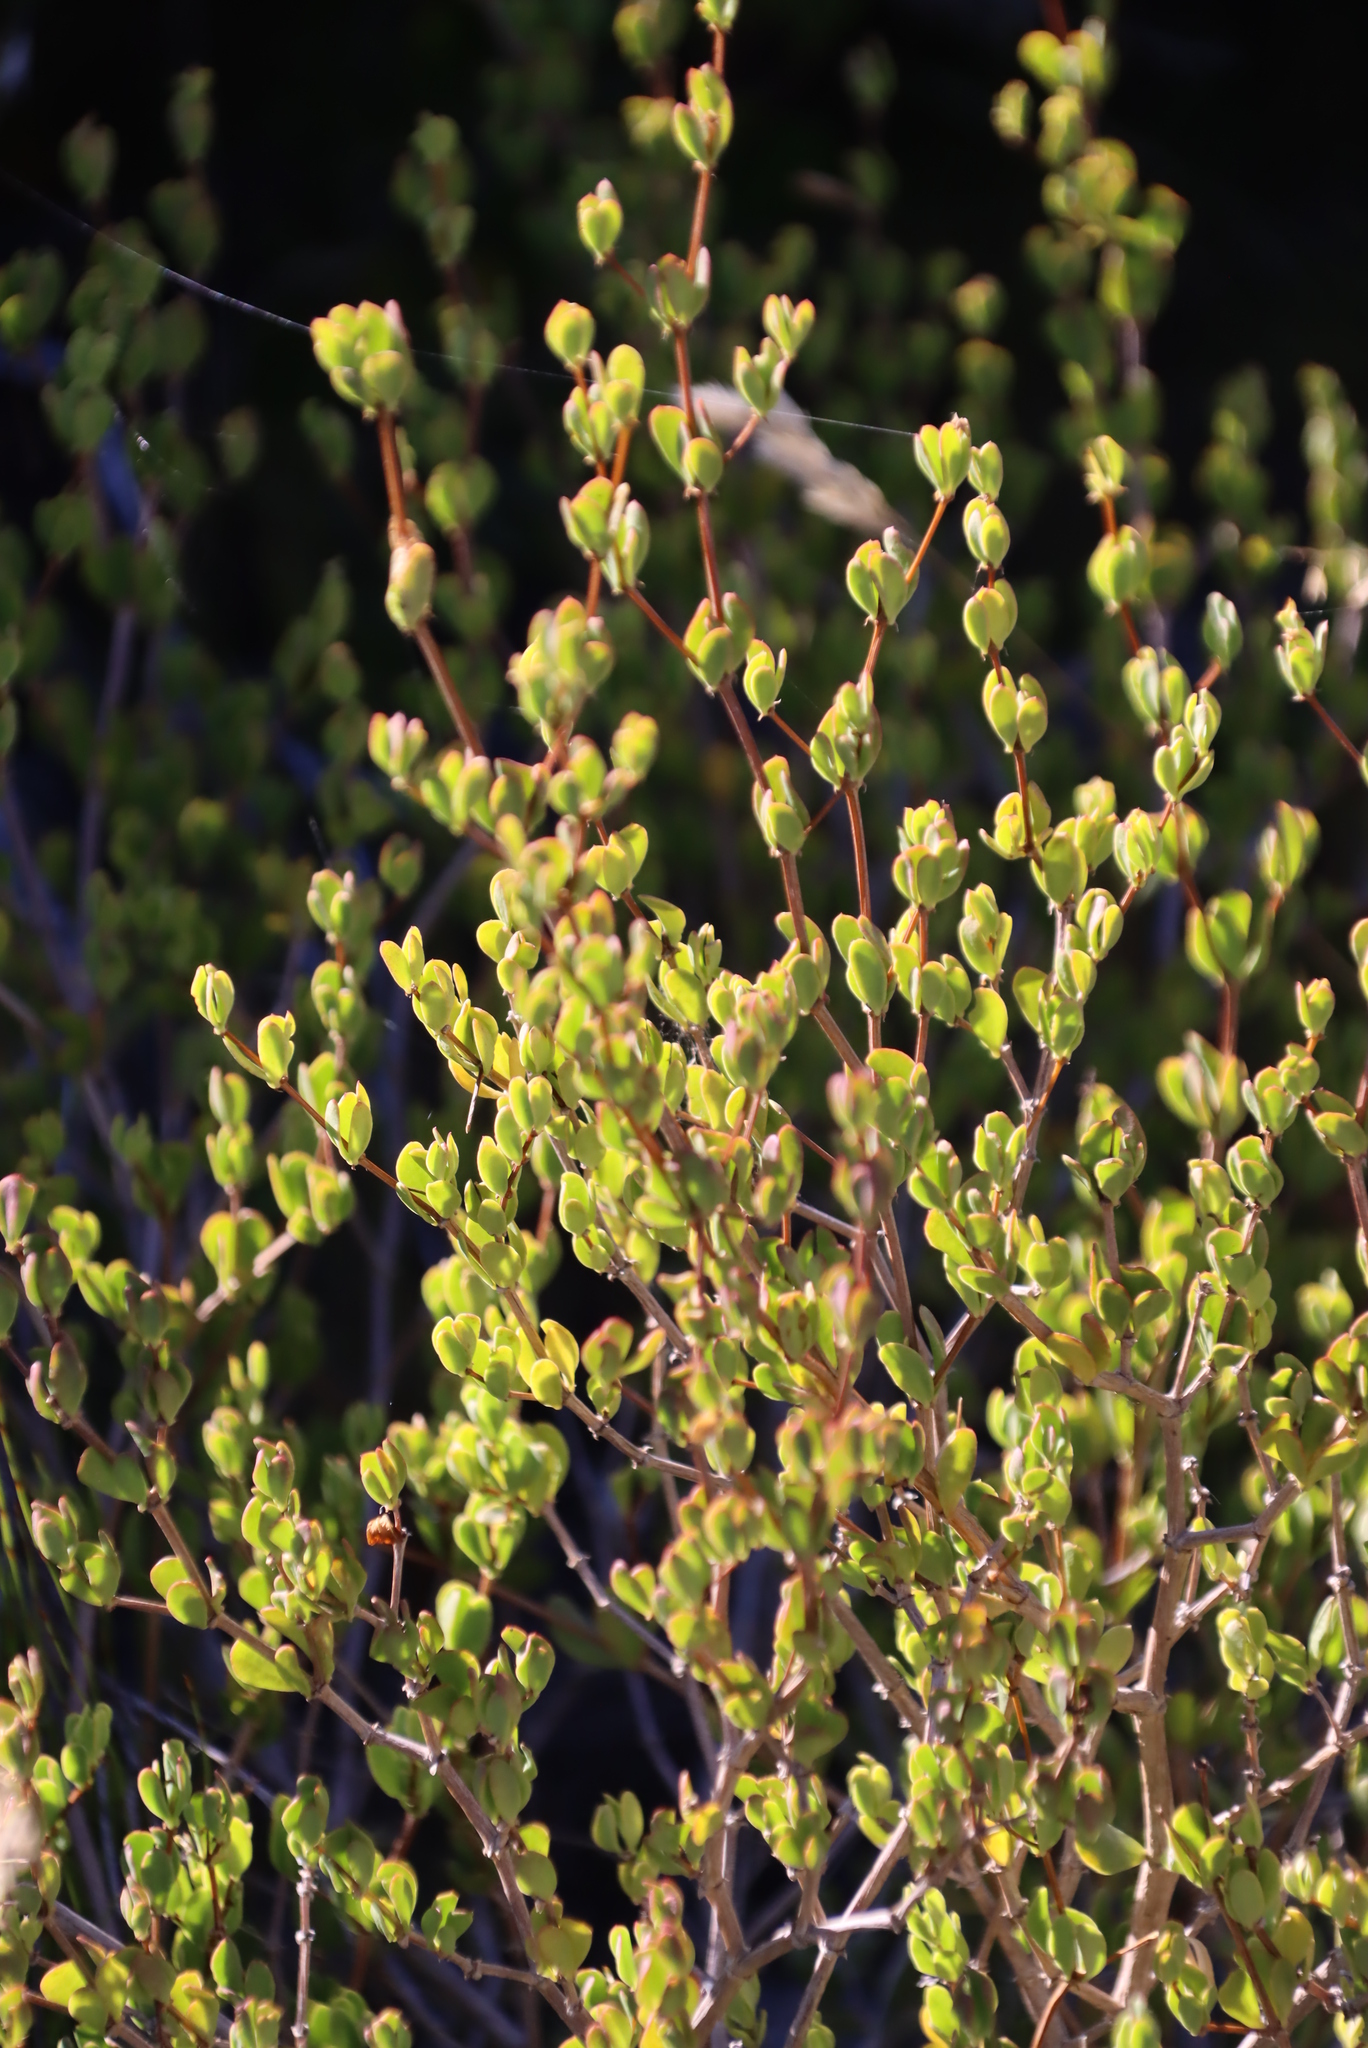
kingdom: Plantae
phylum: Tracheophyta
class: Magnoliopsida
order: Zygophyllales
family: Zygophyllaceae
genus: Roepera
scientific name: Roepera flexuosa
